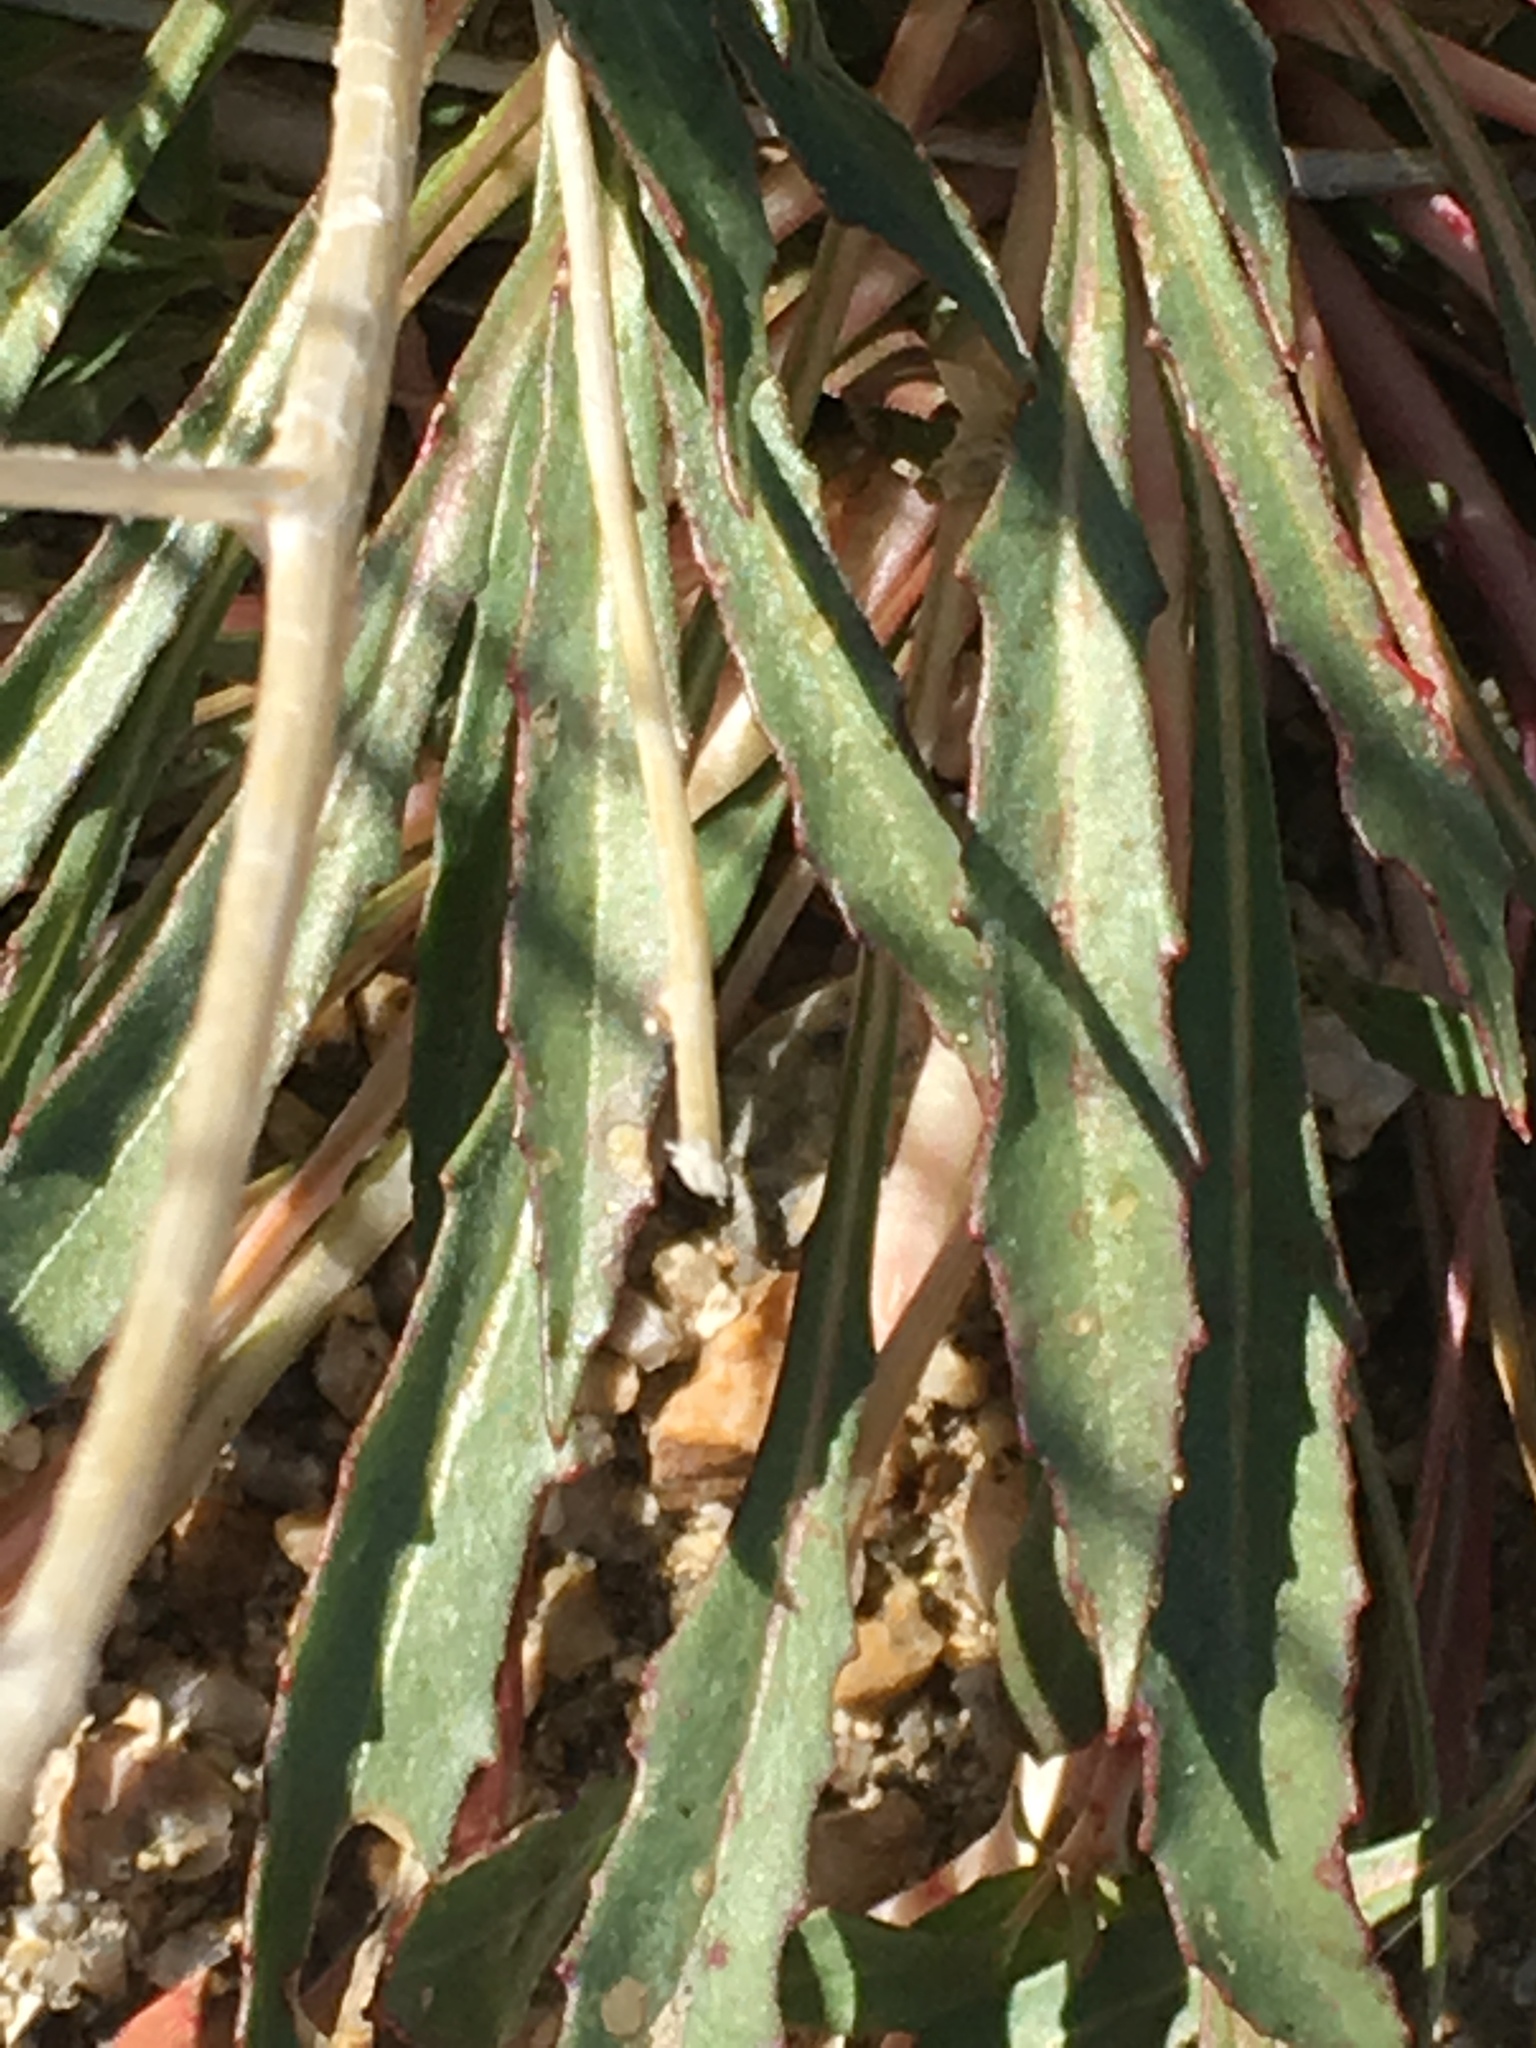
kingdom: Plantae
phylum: Tracheophyta
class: Magnoliopsida
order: Myrtales
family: Onagraceae
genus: Eremothera
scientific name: Eremothera boothii
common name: Booth's evening primrose
